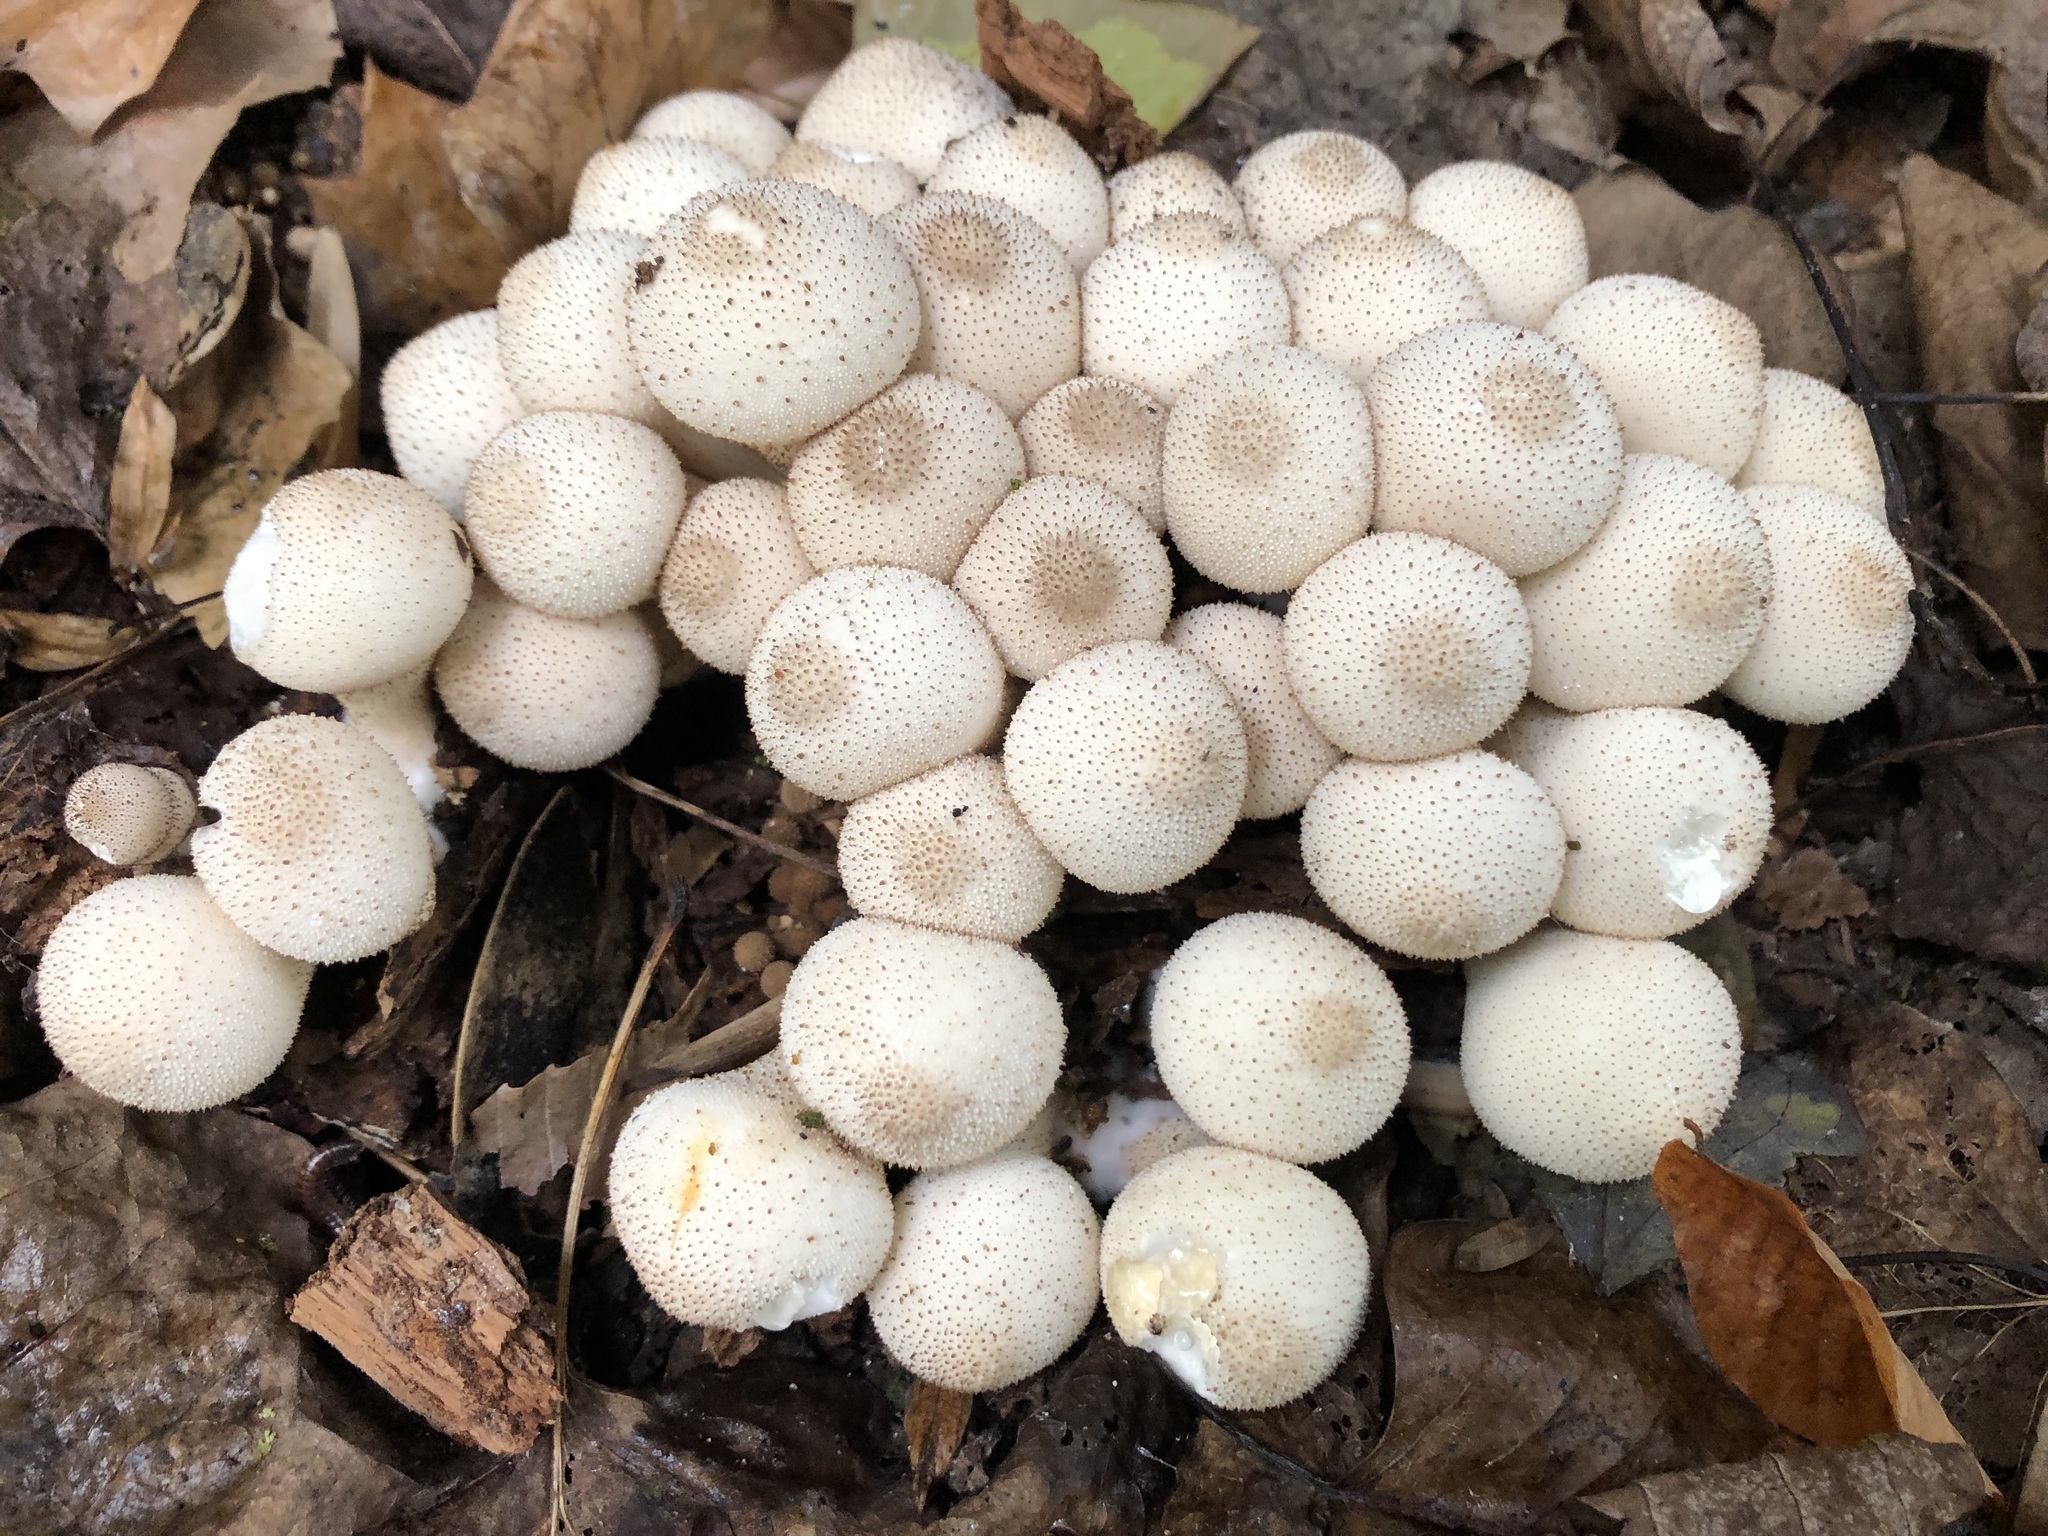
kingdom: Fungi
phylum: Basidiomycota
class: Agaricomycetes
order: Agaricales
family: Lycoperdaceae
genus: Lycoperdon
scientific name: Lycoperdon perlatum
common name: Common puffball
